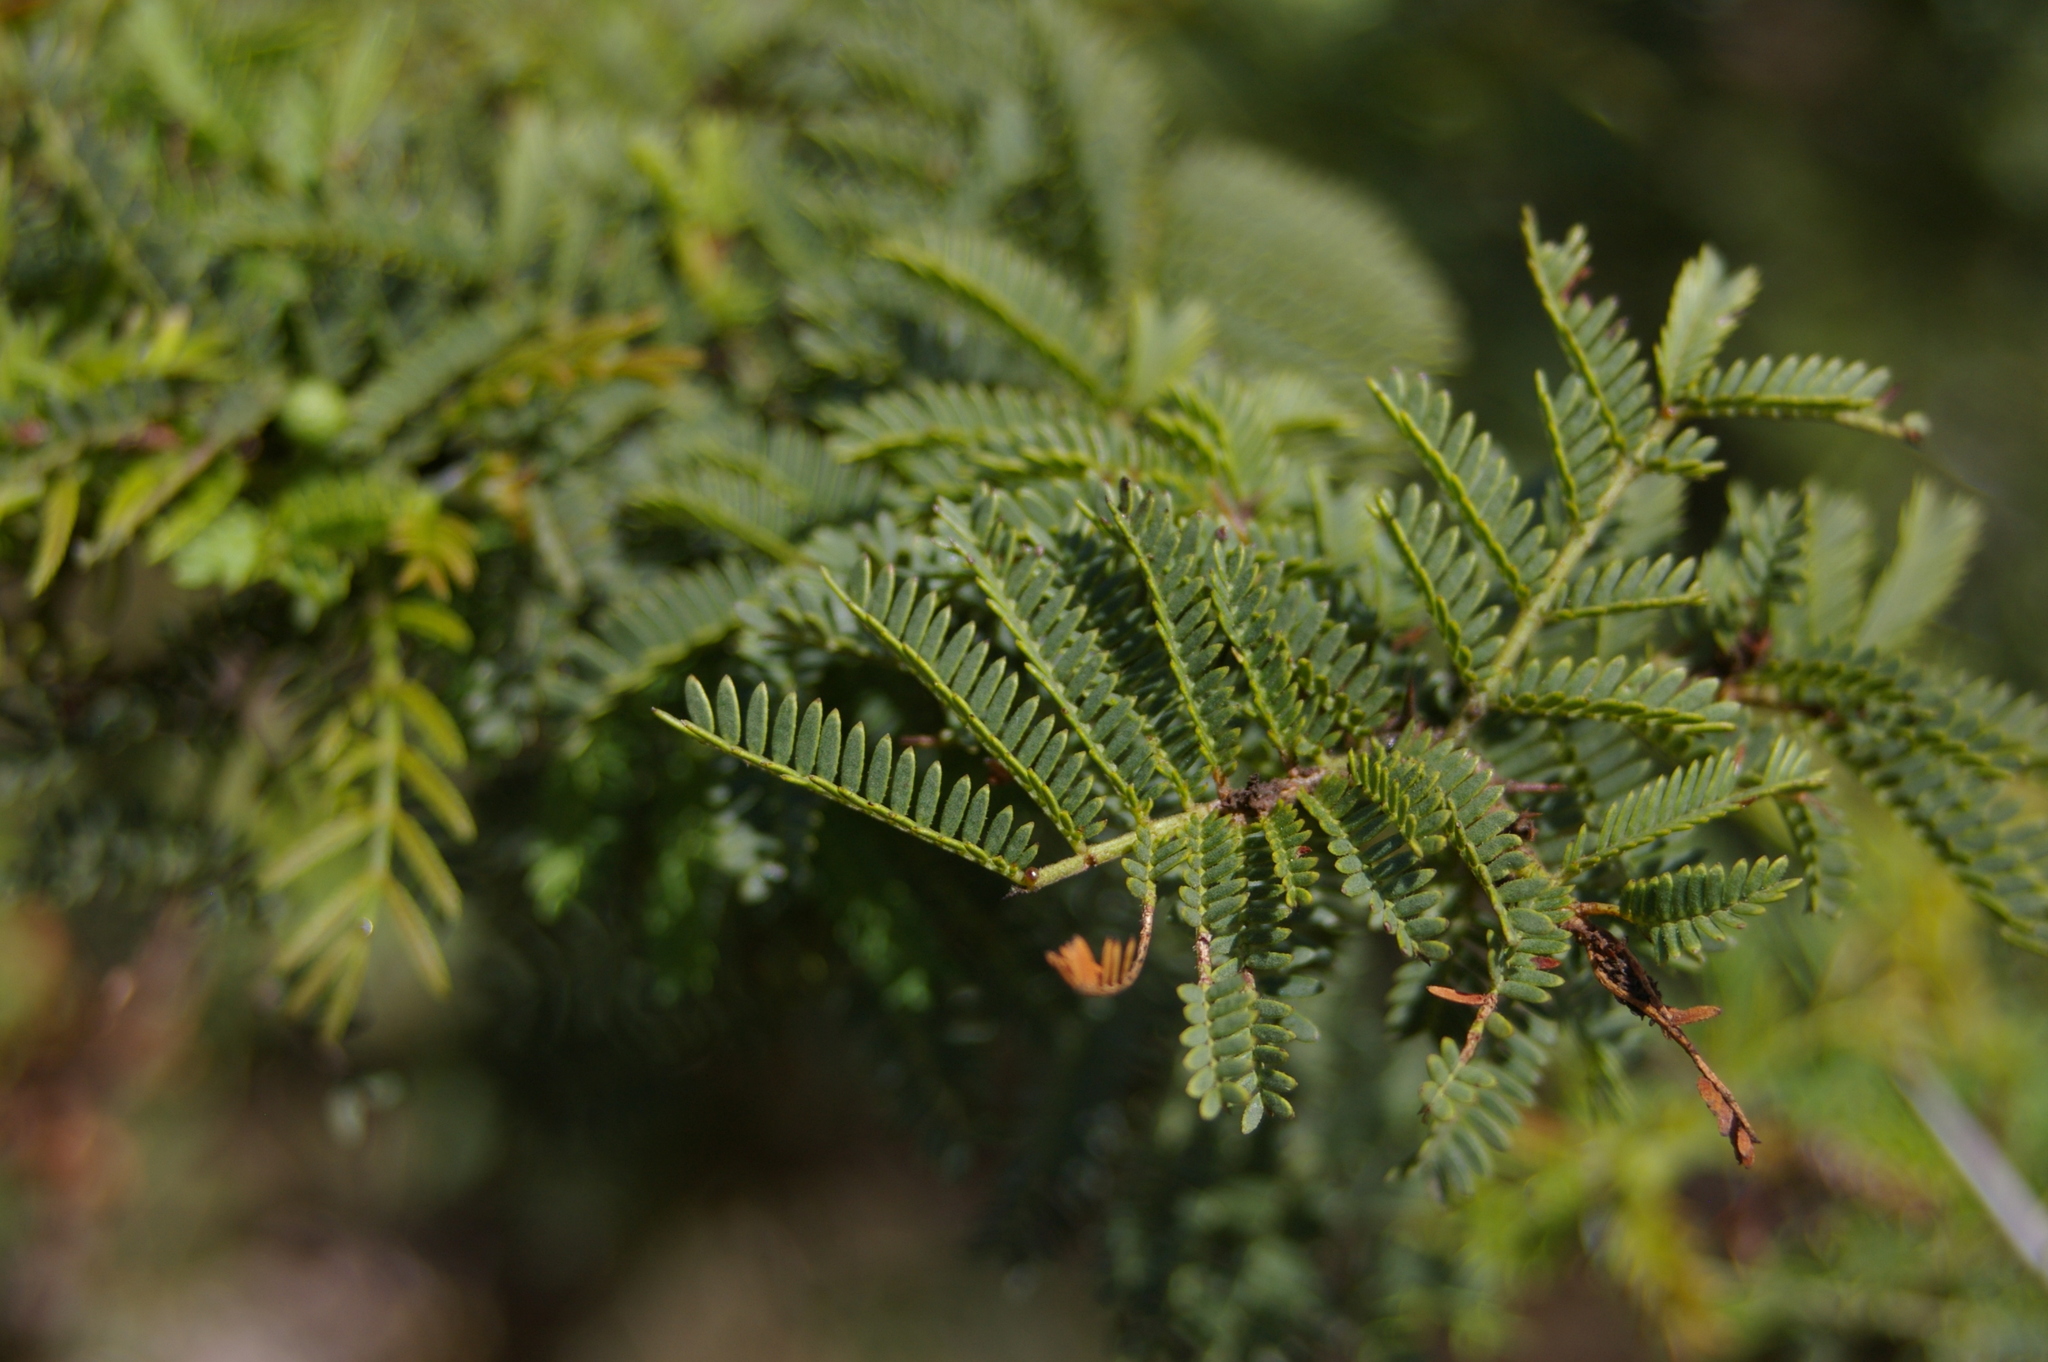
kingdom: Plantae
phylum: Tracheophyta
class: Magnoliopsida
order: Fabales
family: Fabaceae
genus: Vachellia
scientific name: Vachellia rorudiana
